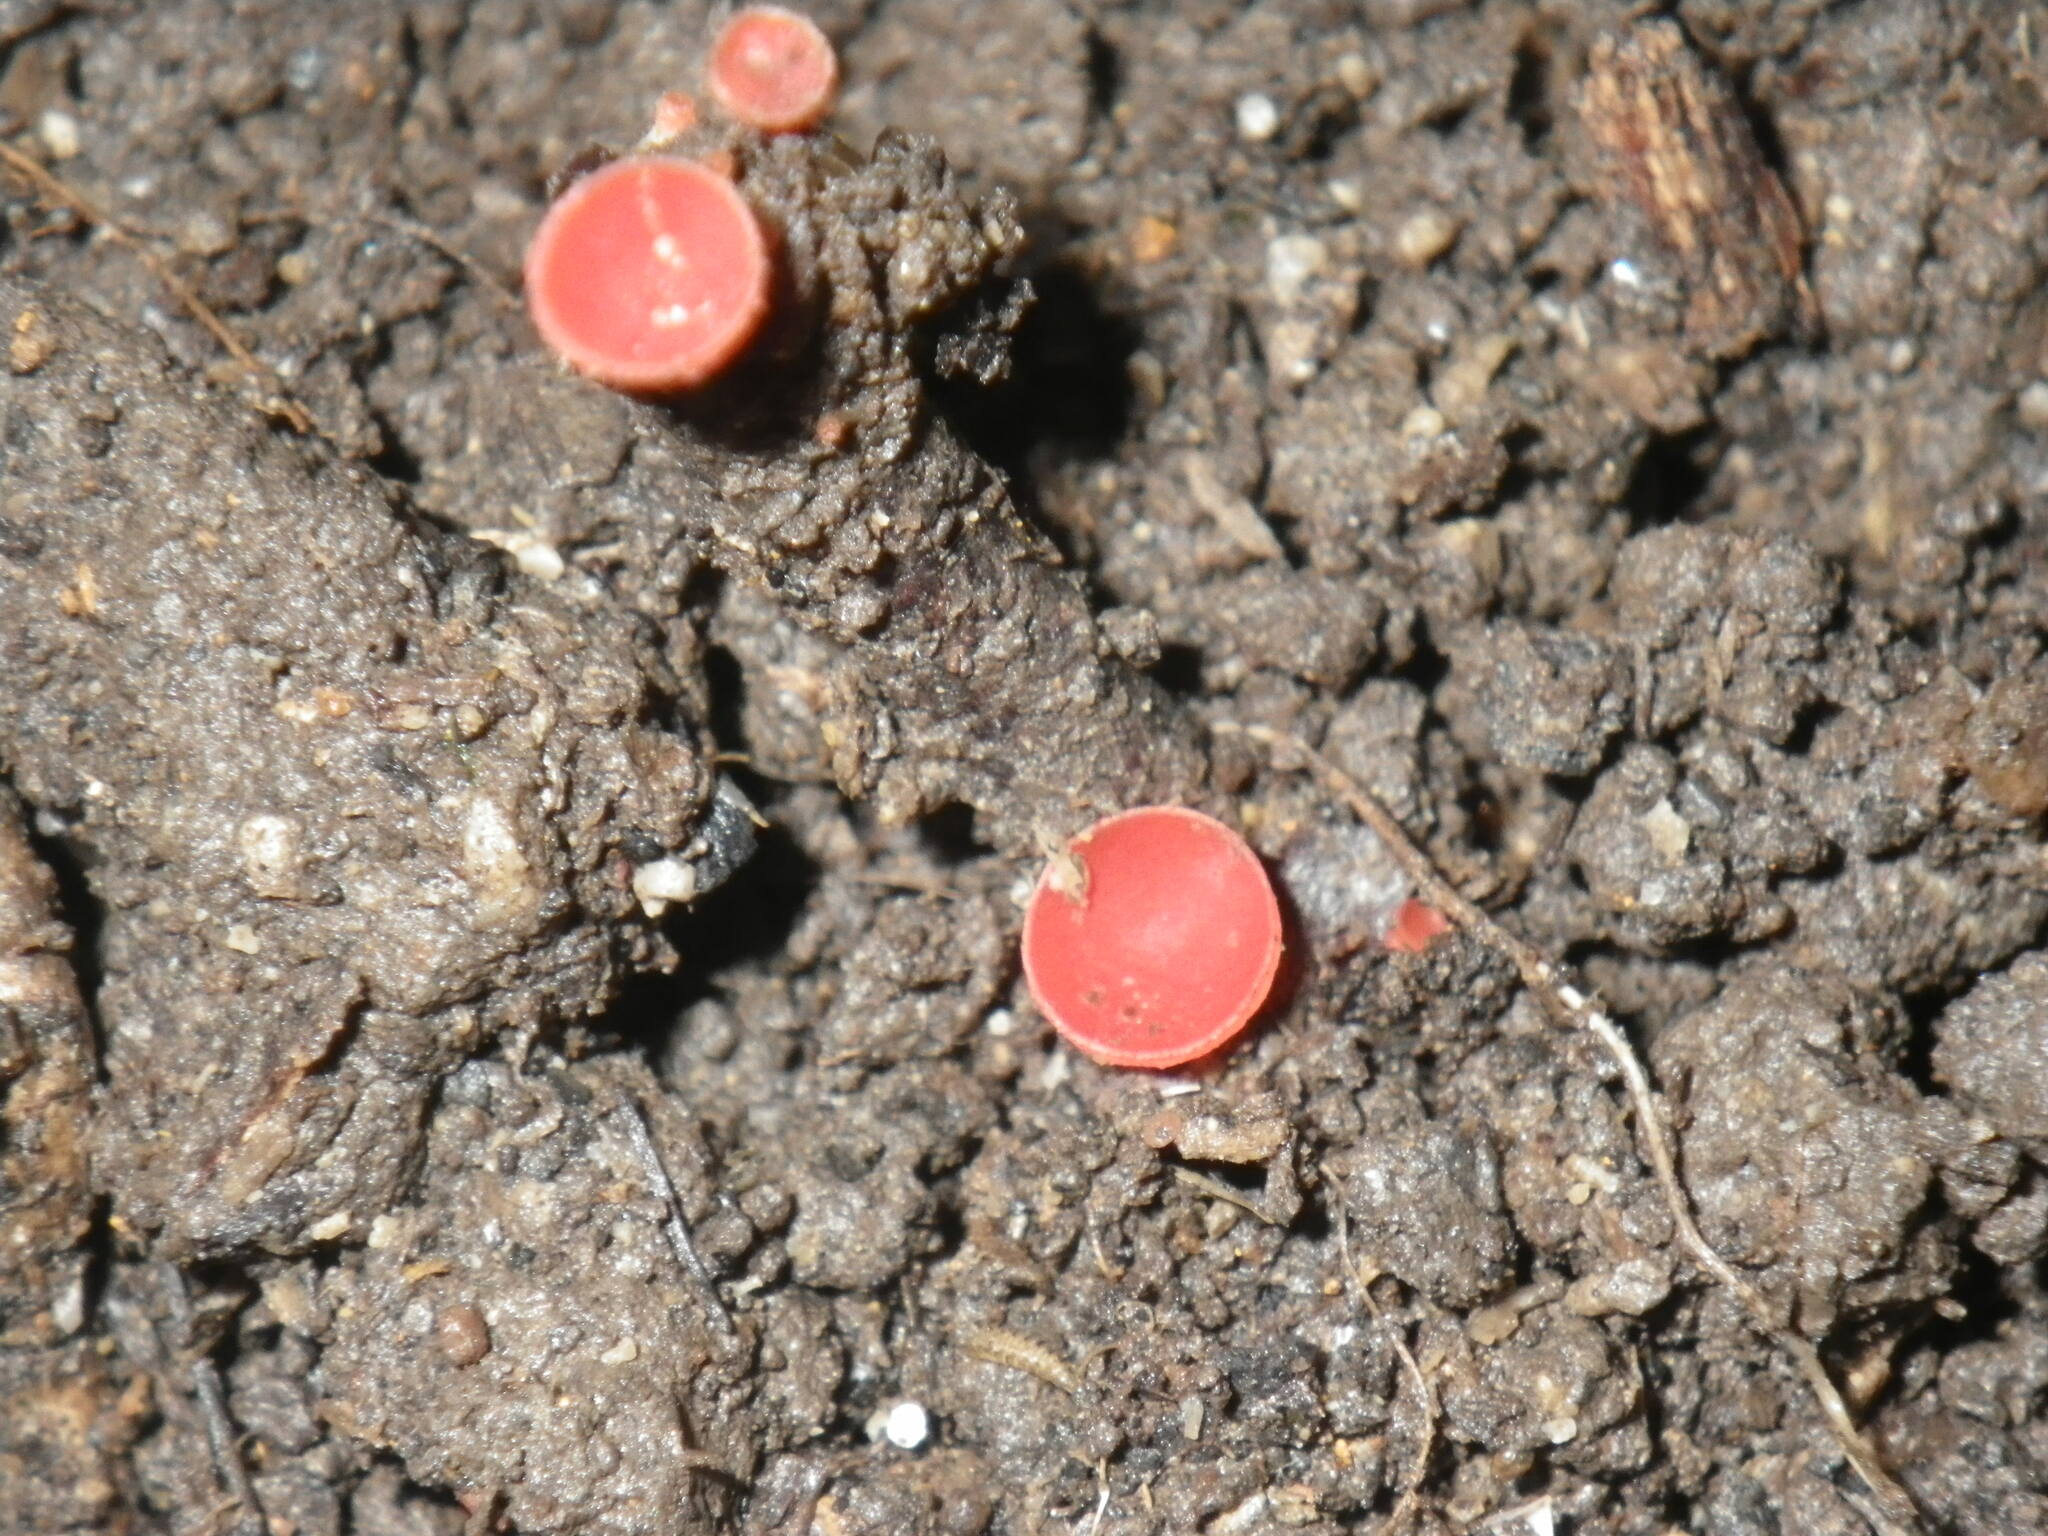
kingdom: Fungi
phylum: Ascomycota
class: Pezizomycetes
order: Pezizales
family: Sarcoscyphaceae
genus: Sarcoscypha
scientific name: Sarcoscypha occidentalis
